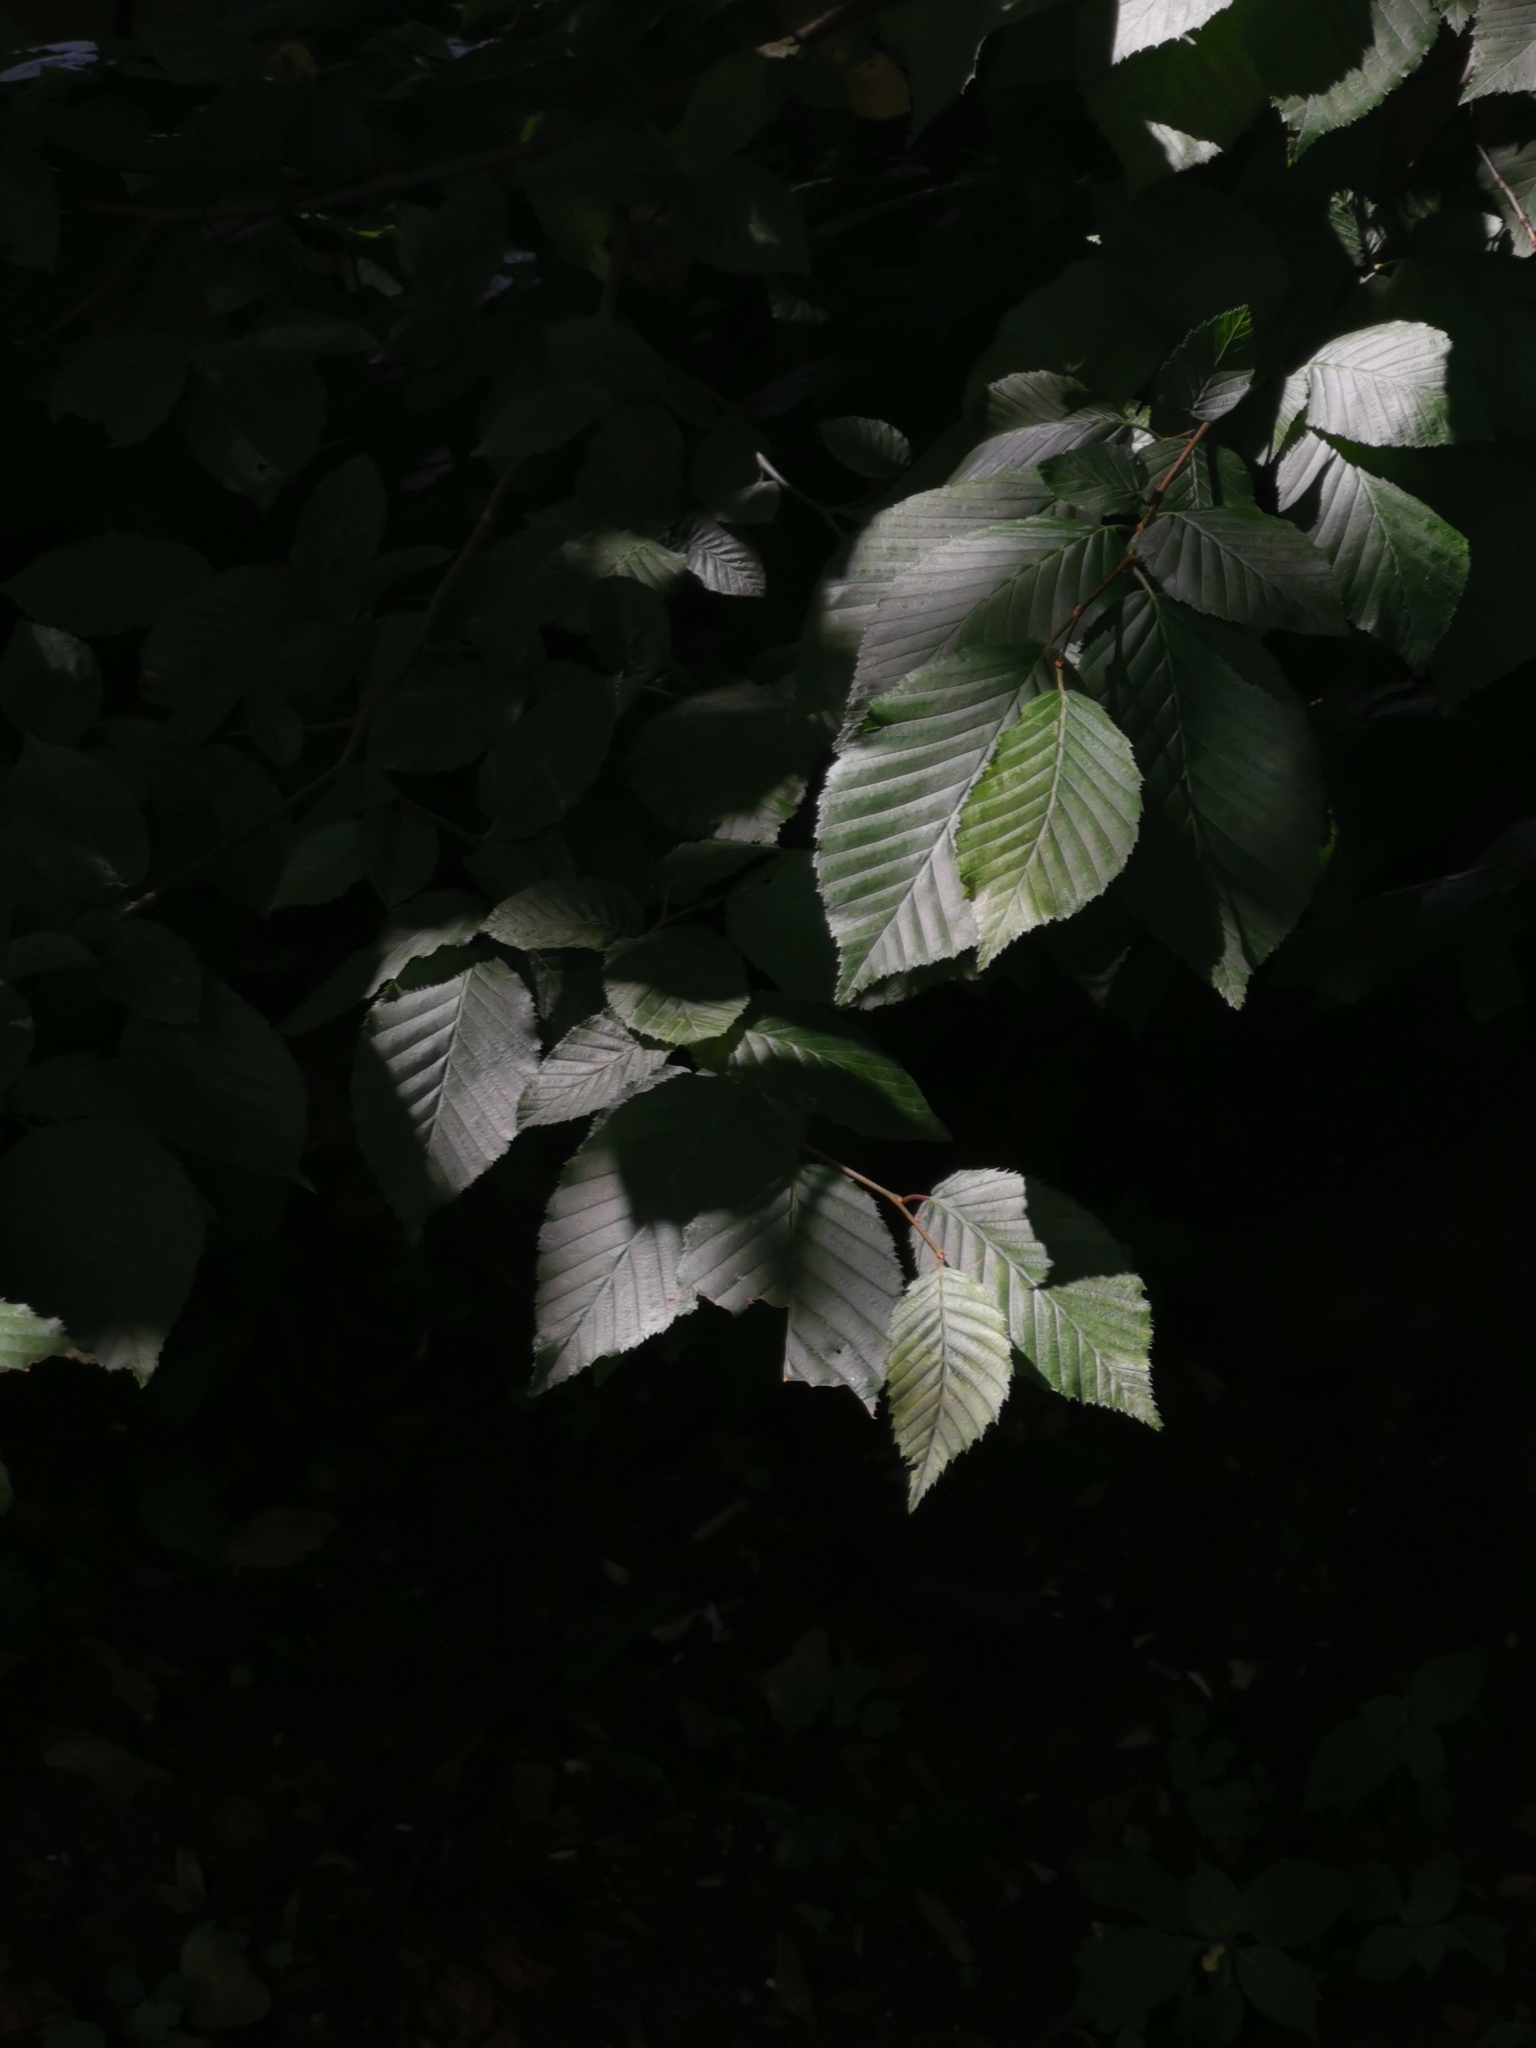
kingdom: Plantae
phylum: Tracheophyta
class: Magnoliopsida
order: Fagales
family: Betulaceae
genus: Carpinus
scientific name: Carpinus betulus
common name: Hornbeam
